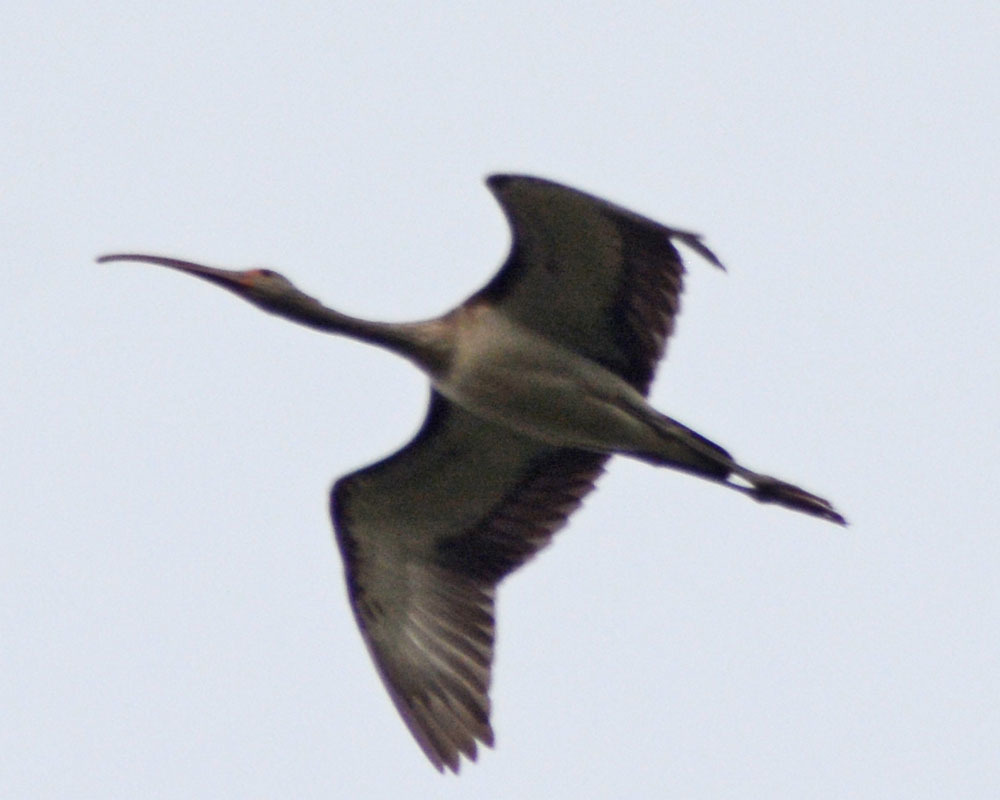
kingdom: Animalia
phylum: Chordata
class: Aves
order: Pelecaniformes
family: Threskiornithidae
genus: Eudocimus
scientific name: Eudocimus albus
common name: White ibis
